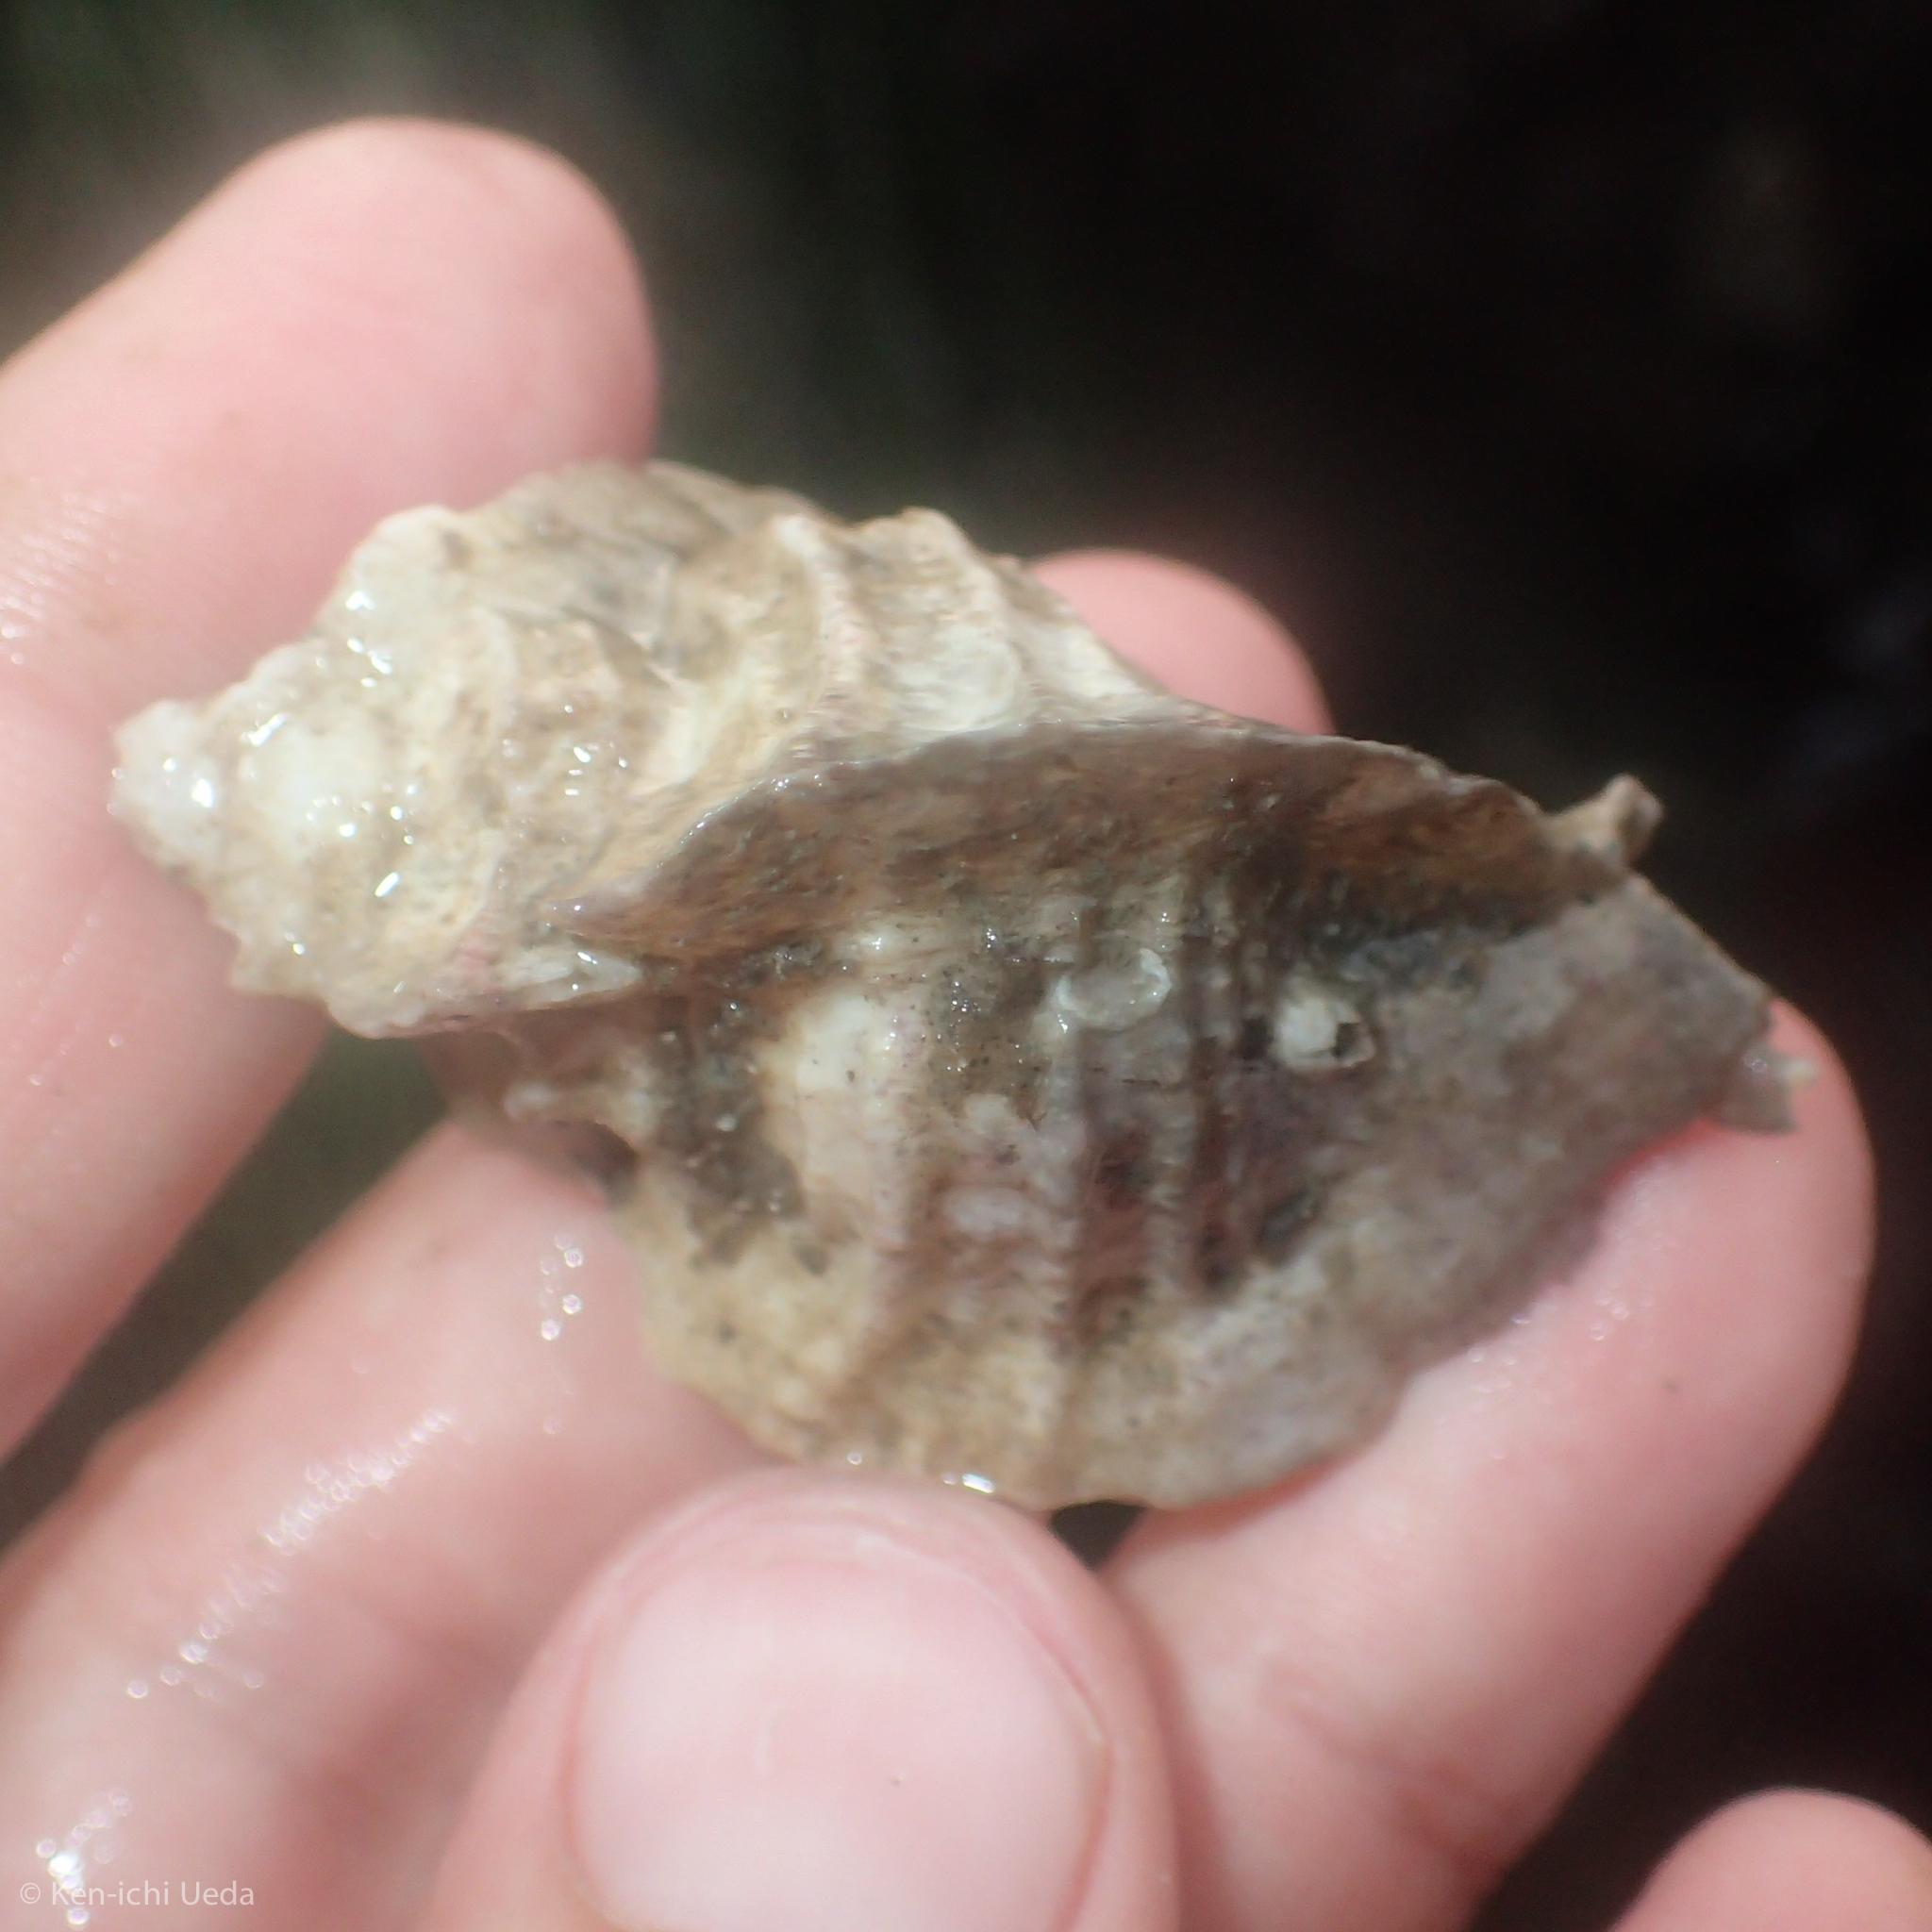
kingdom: Animalia
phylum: Mollusca
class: Gastropoda
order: Neogastropoda
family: Muricidae
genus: Ceratostoma
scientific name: Ceratostoma foliatum
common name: Foliate thorn purpura
